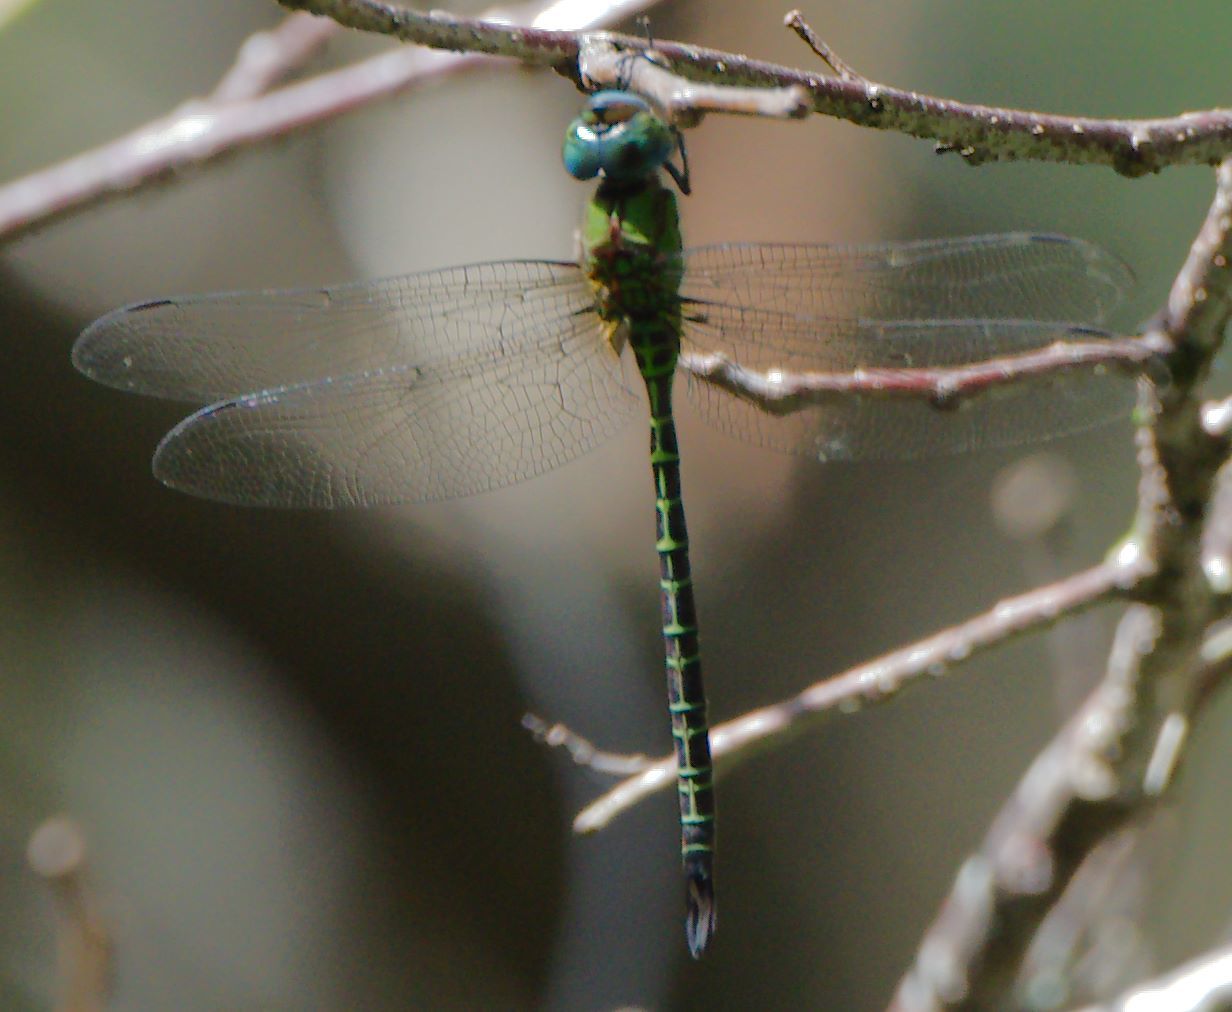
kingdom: Animalia
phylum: Arthropoda
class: Insecta
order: Odonata
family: Aeshnidae
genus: Coryphaeschna
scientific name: Coryphaeschna adnexa
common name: Blue-faced darner
